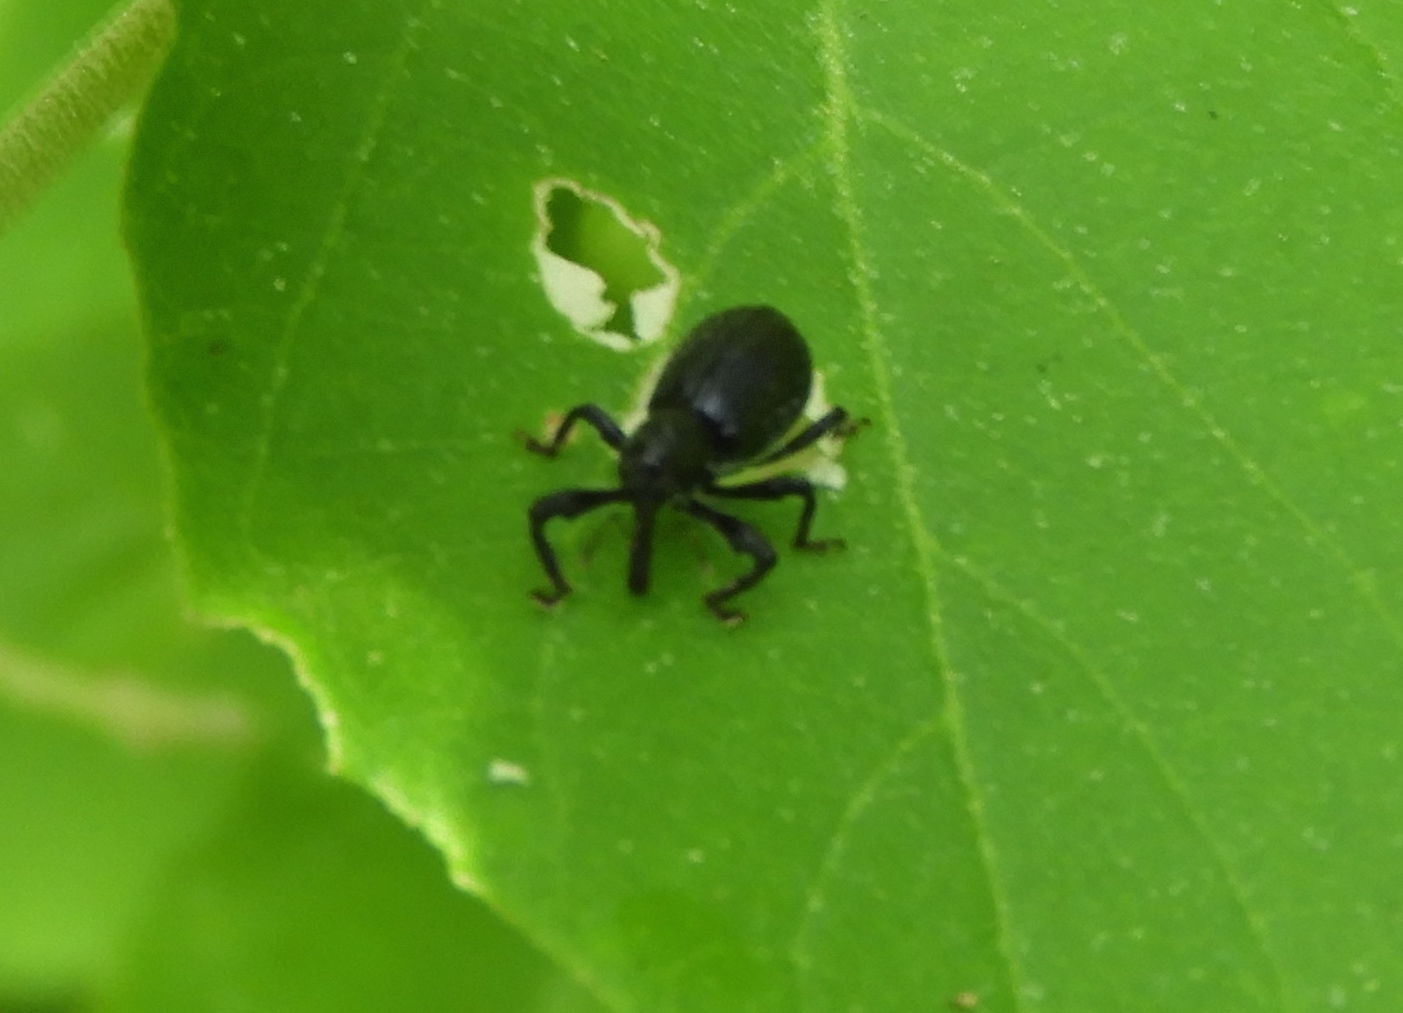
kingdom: Animalia
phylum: Arthropoda
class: Insecta
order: Coleoptera
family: Curculionidae
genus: Myrmex
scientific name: Myrmex
